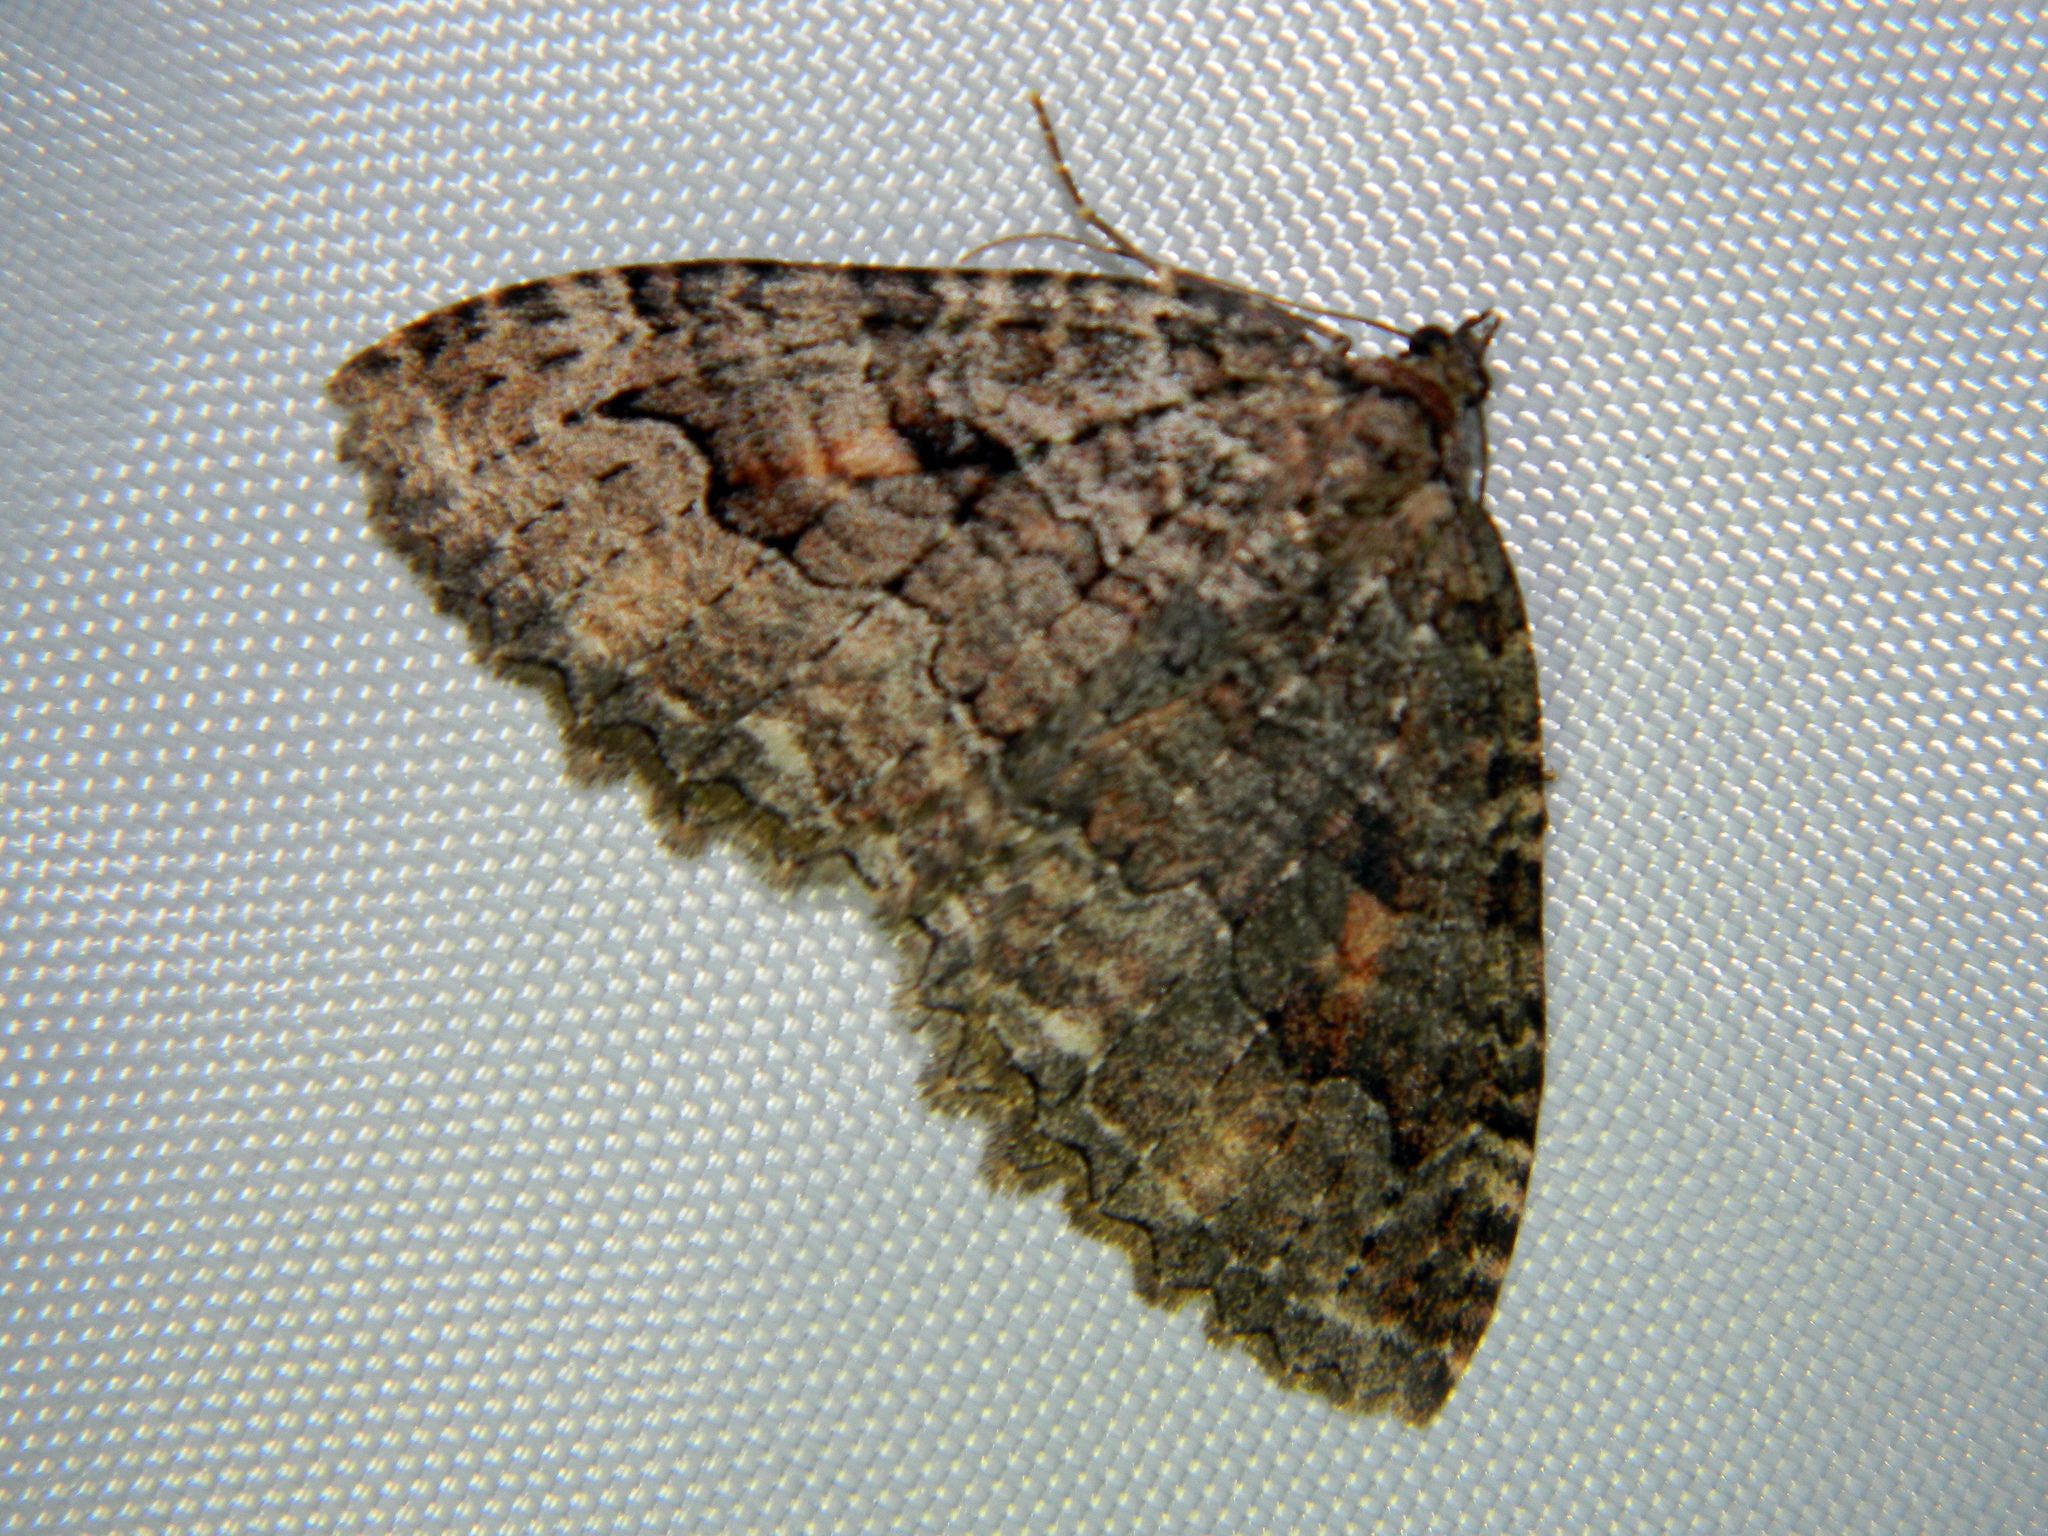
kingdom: Animalia
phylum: Arthropoda
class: Insecta
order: Lepidoptera
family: Geometridae
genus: Triphosa
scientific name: Triphosa haesitata
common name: Tissue moth
